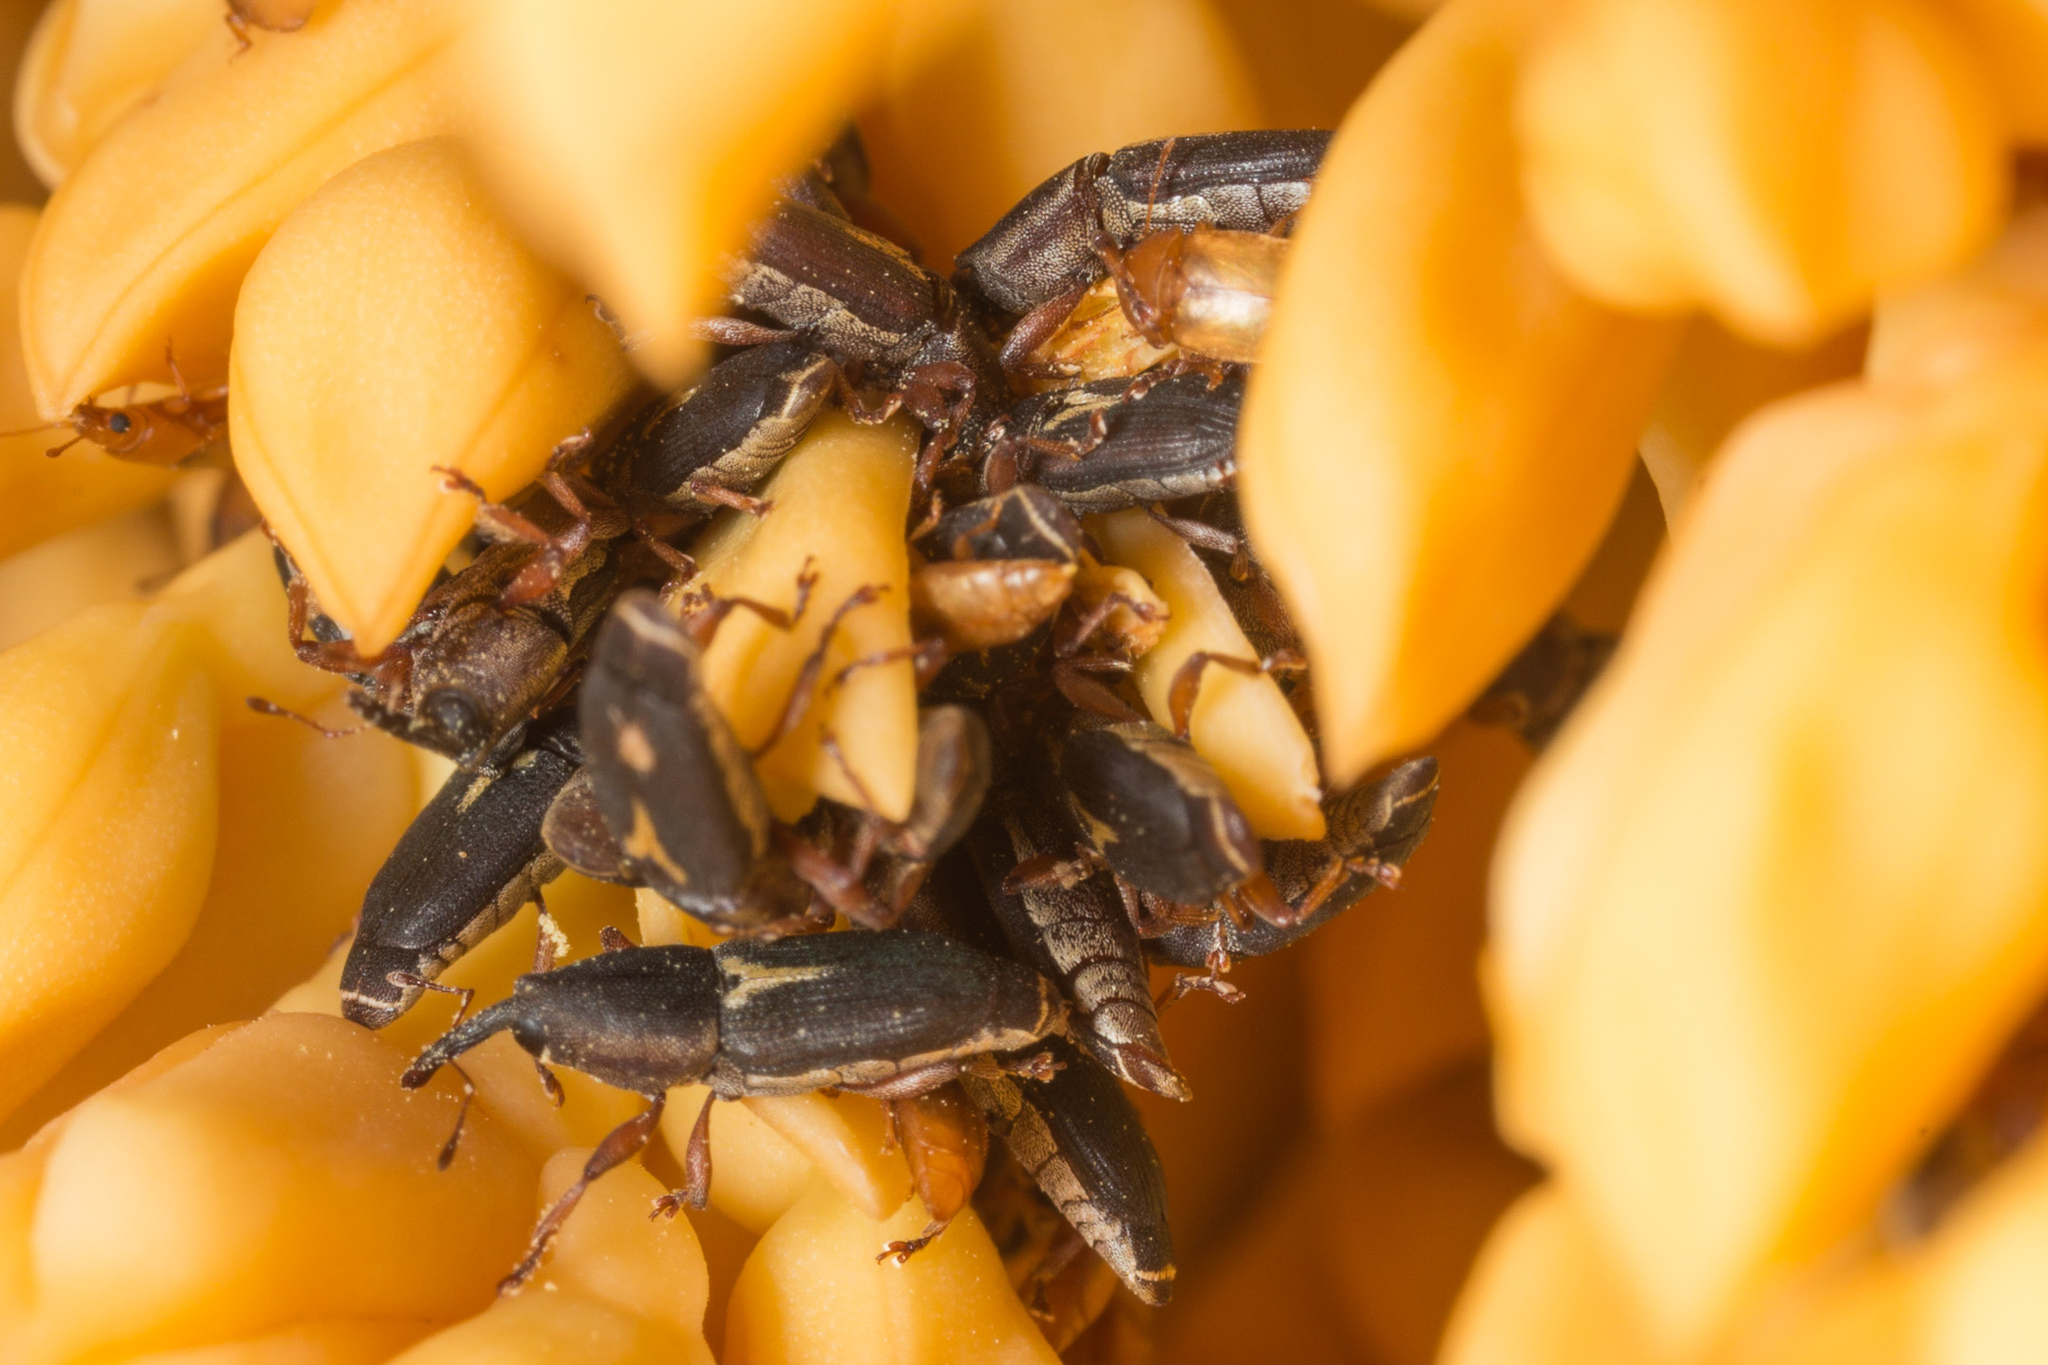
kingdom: Animalia
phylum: Arthropoda
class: Insecta
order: Coleoptera
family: Curculionidae
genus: Microstrates
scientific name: Microstrates ypsilon
